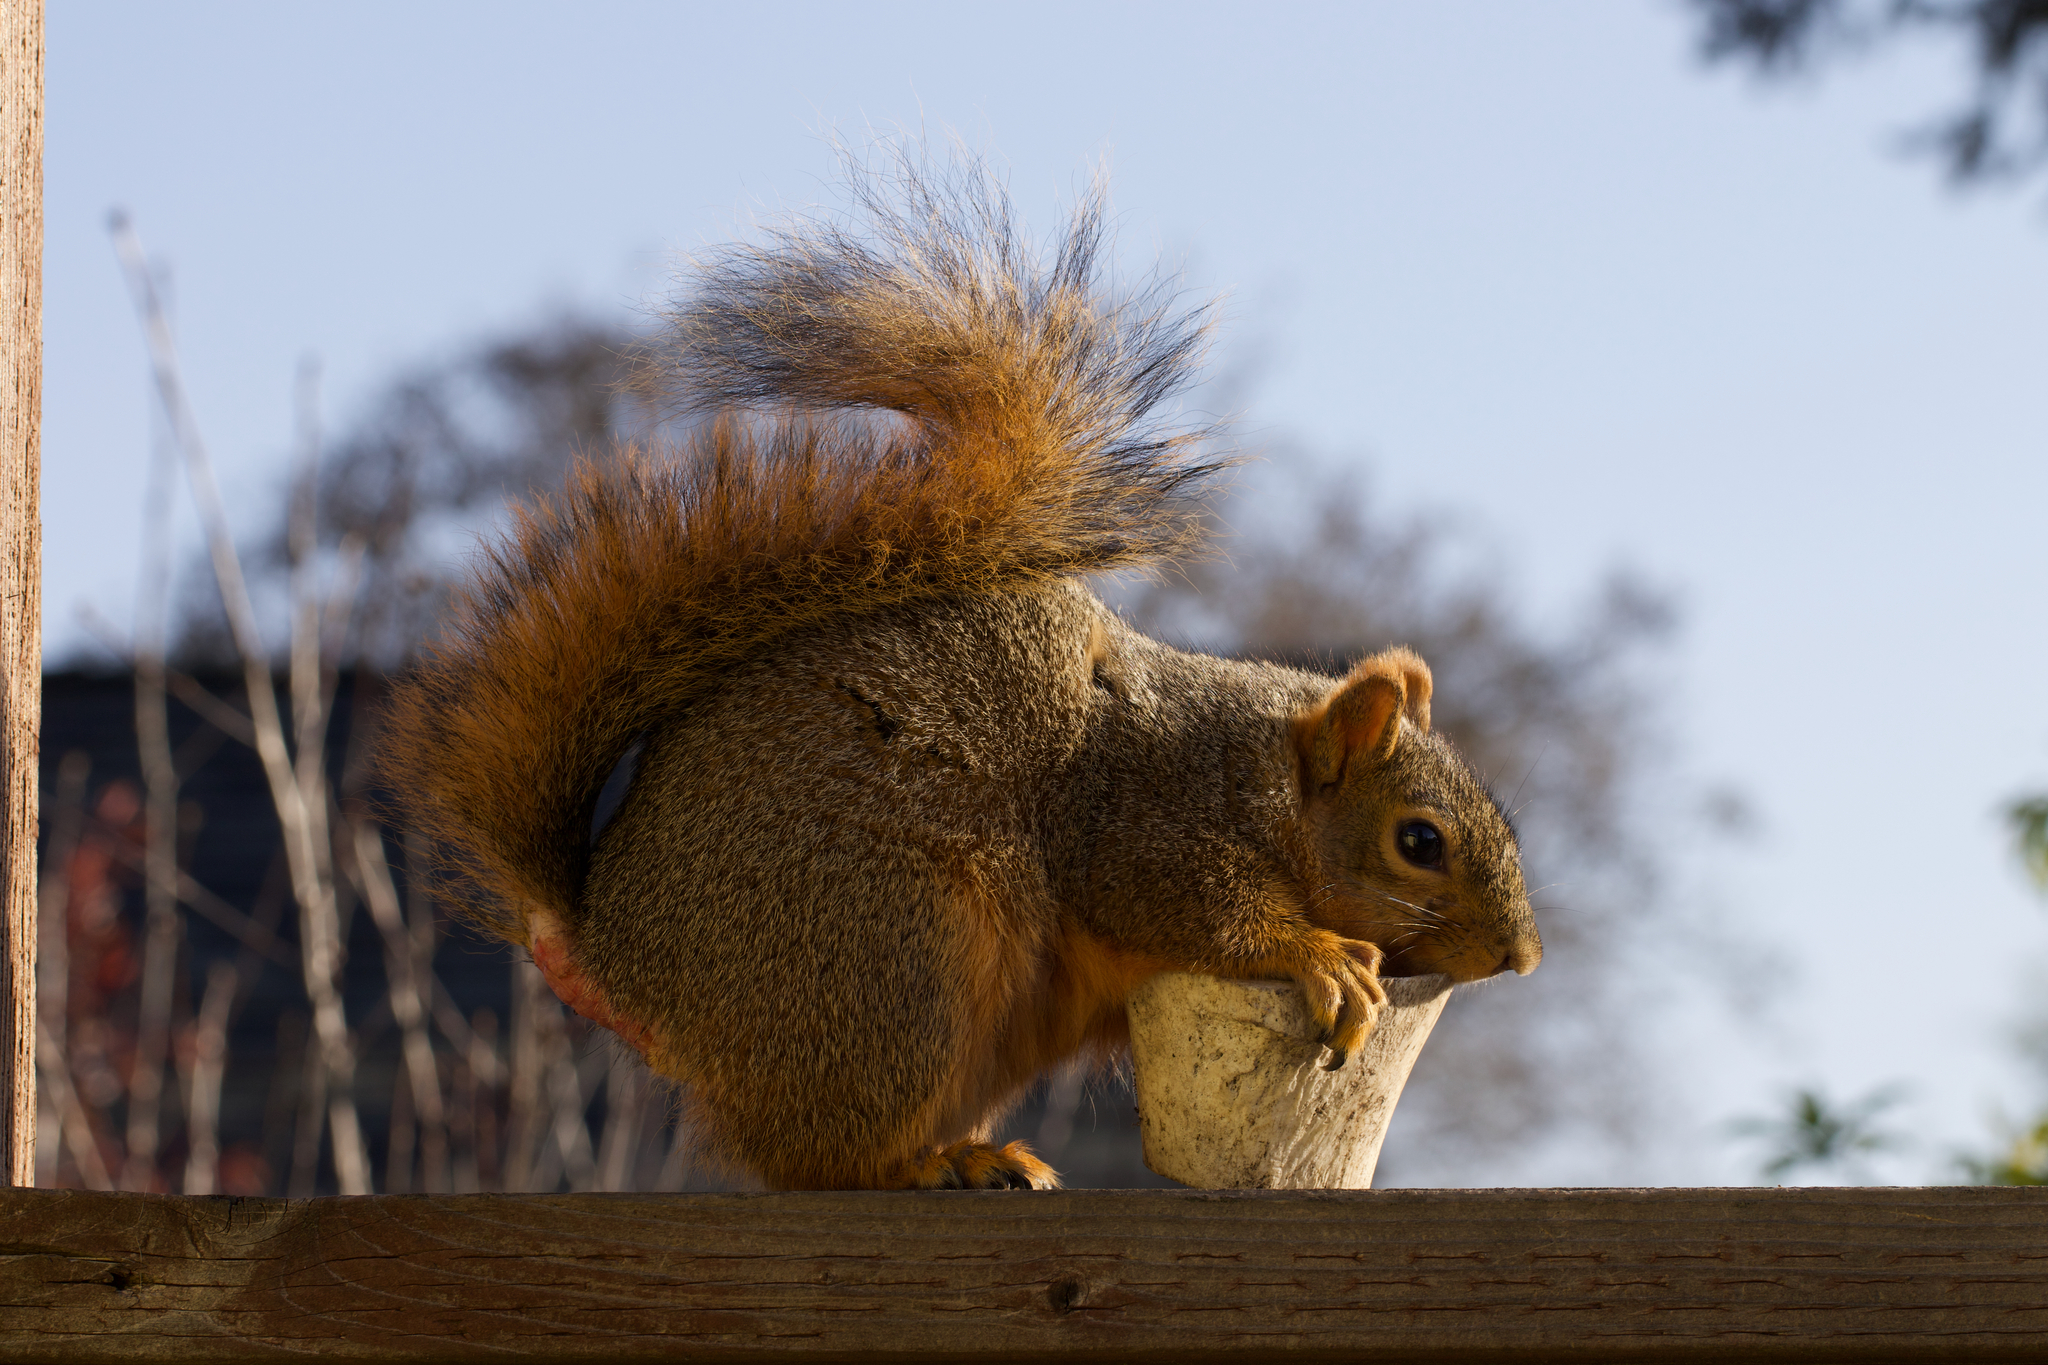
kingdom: Animalia
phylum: Chordata
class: Mammalia
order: Rodentia
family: Sciuridae
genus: Sciurus
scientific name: Sciurus niger
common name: Fox squirrel
